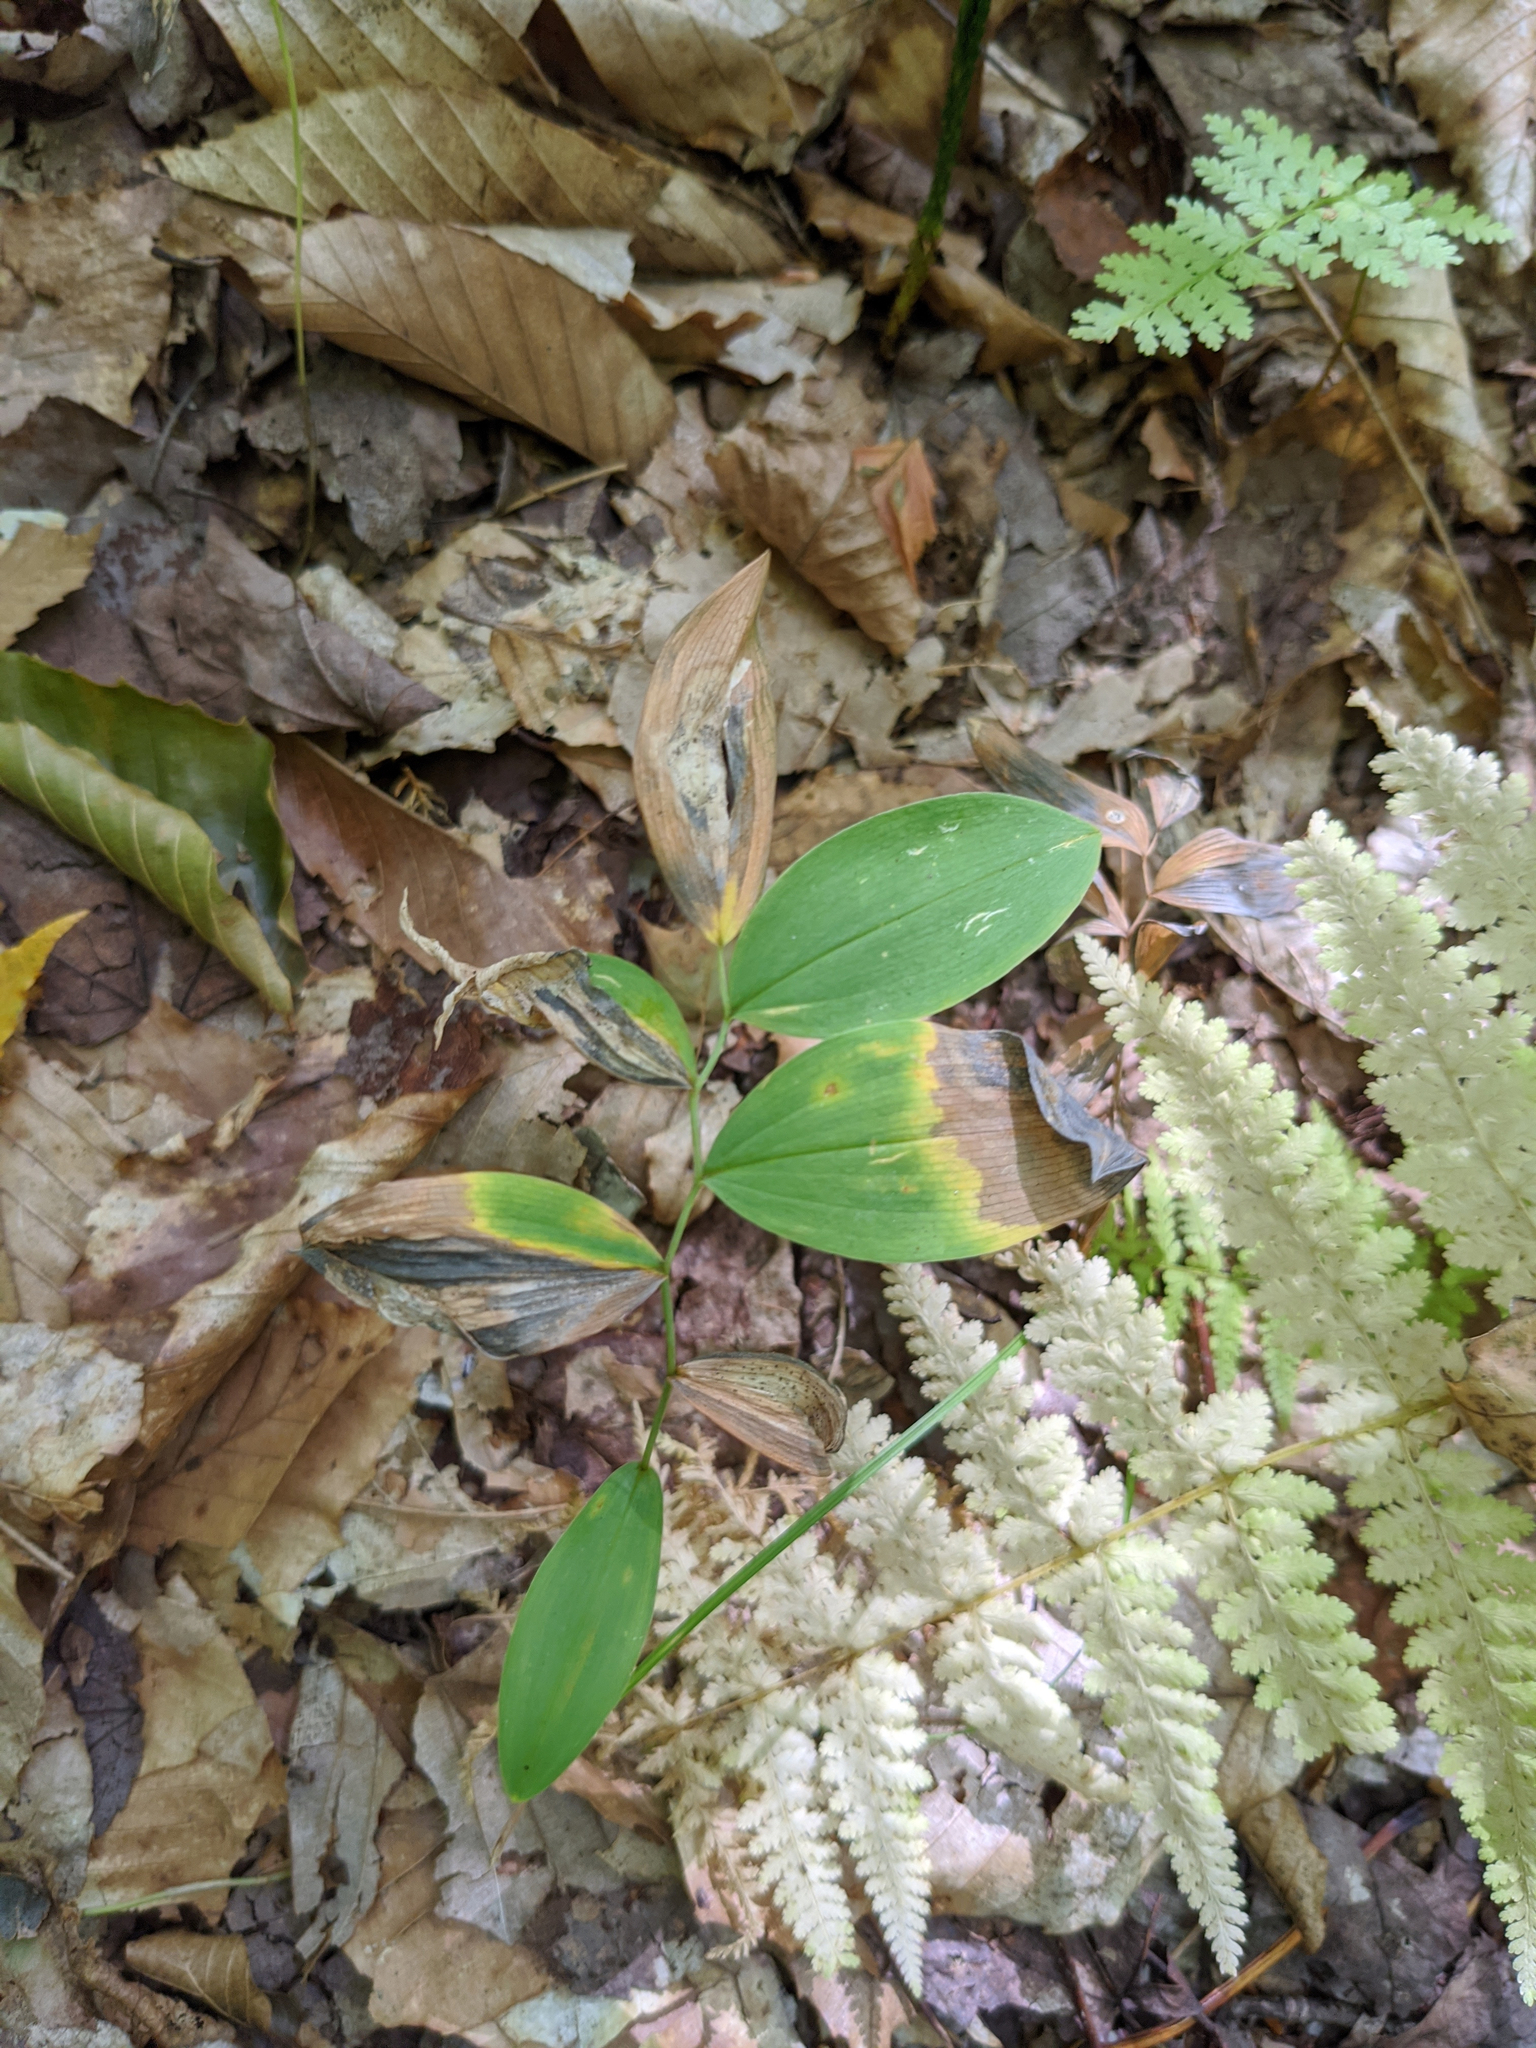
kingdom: Plantae
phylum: Tracheophyta
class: Liliopsida
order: Liliales
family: Colchicaceae
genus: Uvularia
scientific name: Uvularia sessilifolia
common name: Straw-lily
